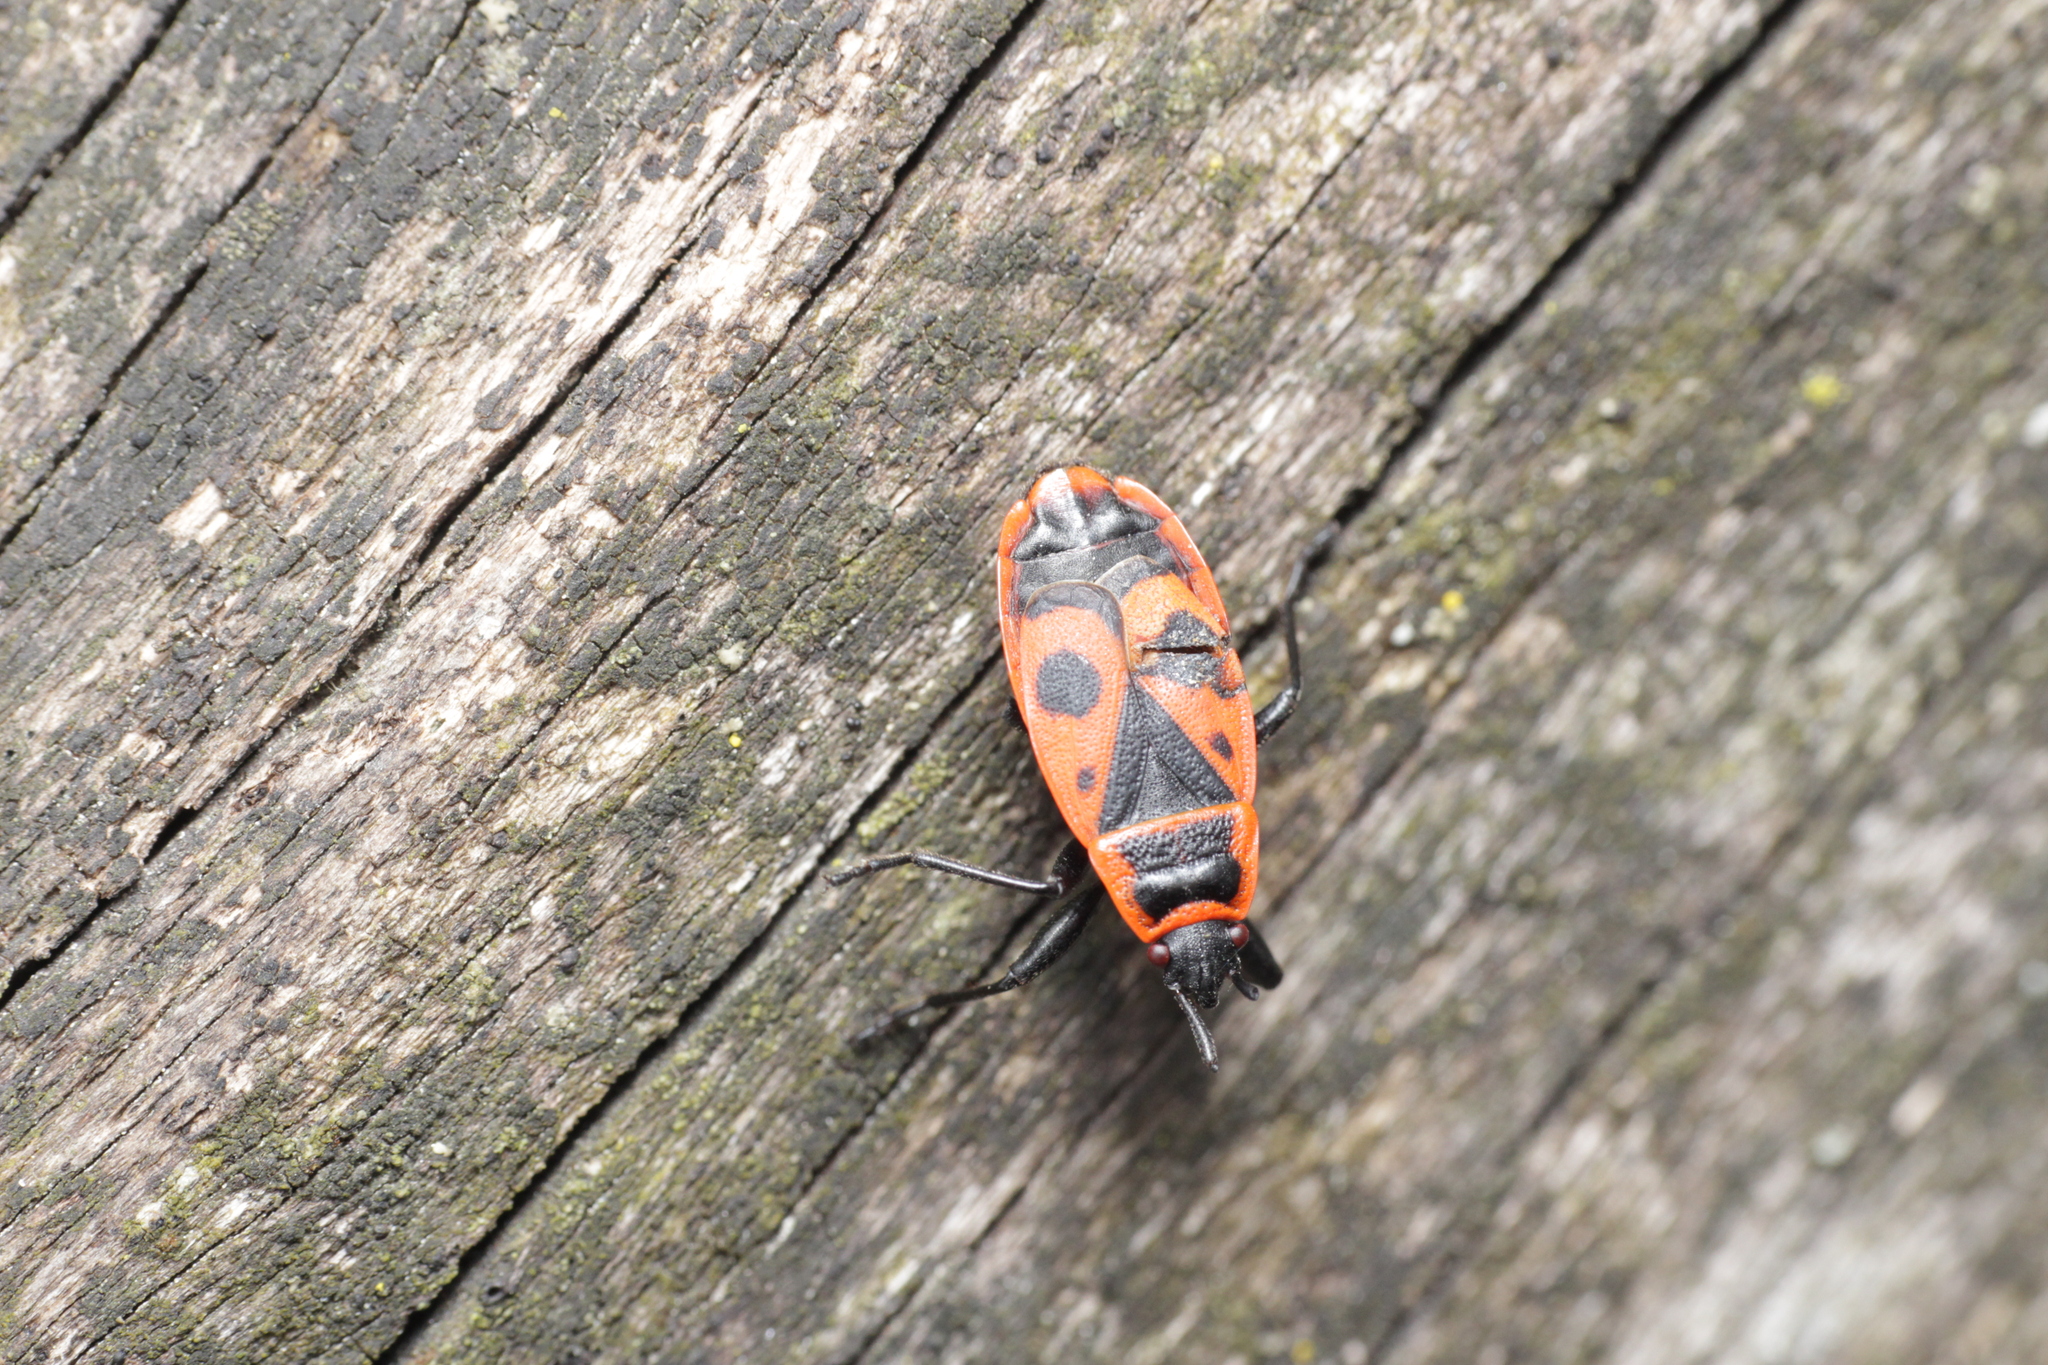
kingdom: Animalia
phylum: Arthropoda
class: Insecta
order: Hemiptera
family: Pyrrhocoridae
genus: Pyrrhocoris
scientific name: Pyrrhocoris apterus
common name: Firebug
